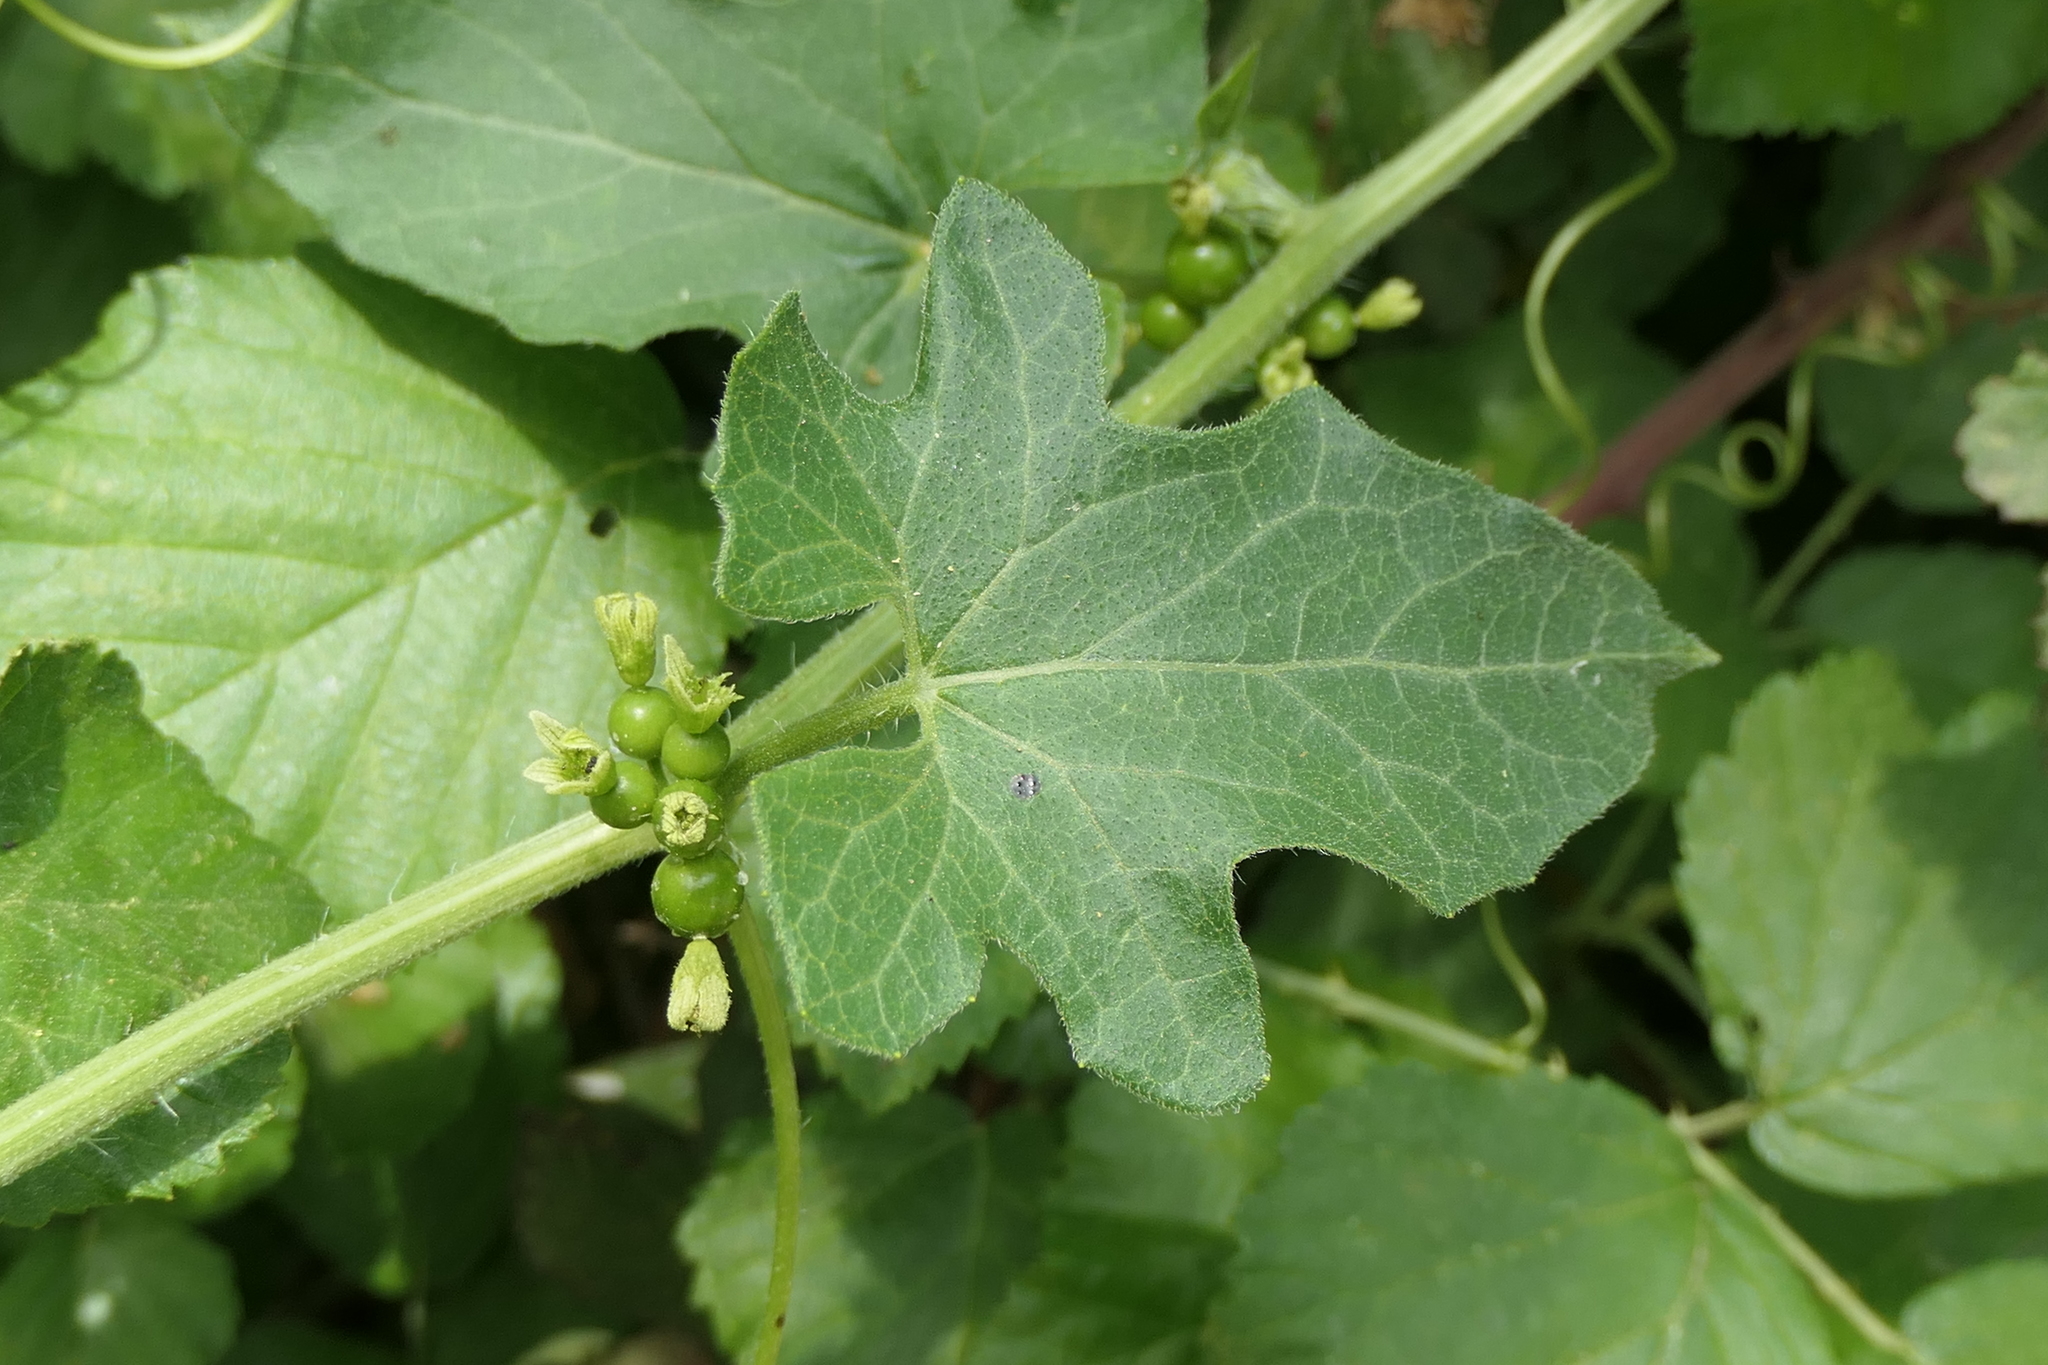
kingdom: Plantae
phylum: Tracheophyta
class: Magnoliopsida
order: Cucurbitales
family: Cucurbitaceae
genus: Bryonia
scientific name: Bryonia cretica
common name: Cretan bryony
